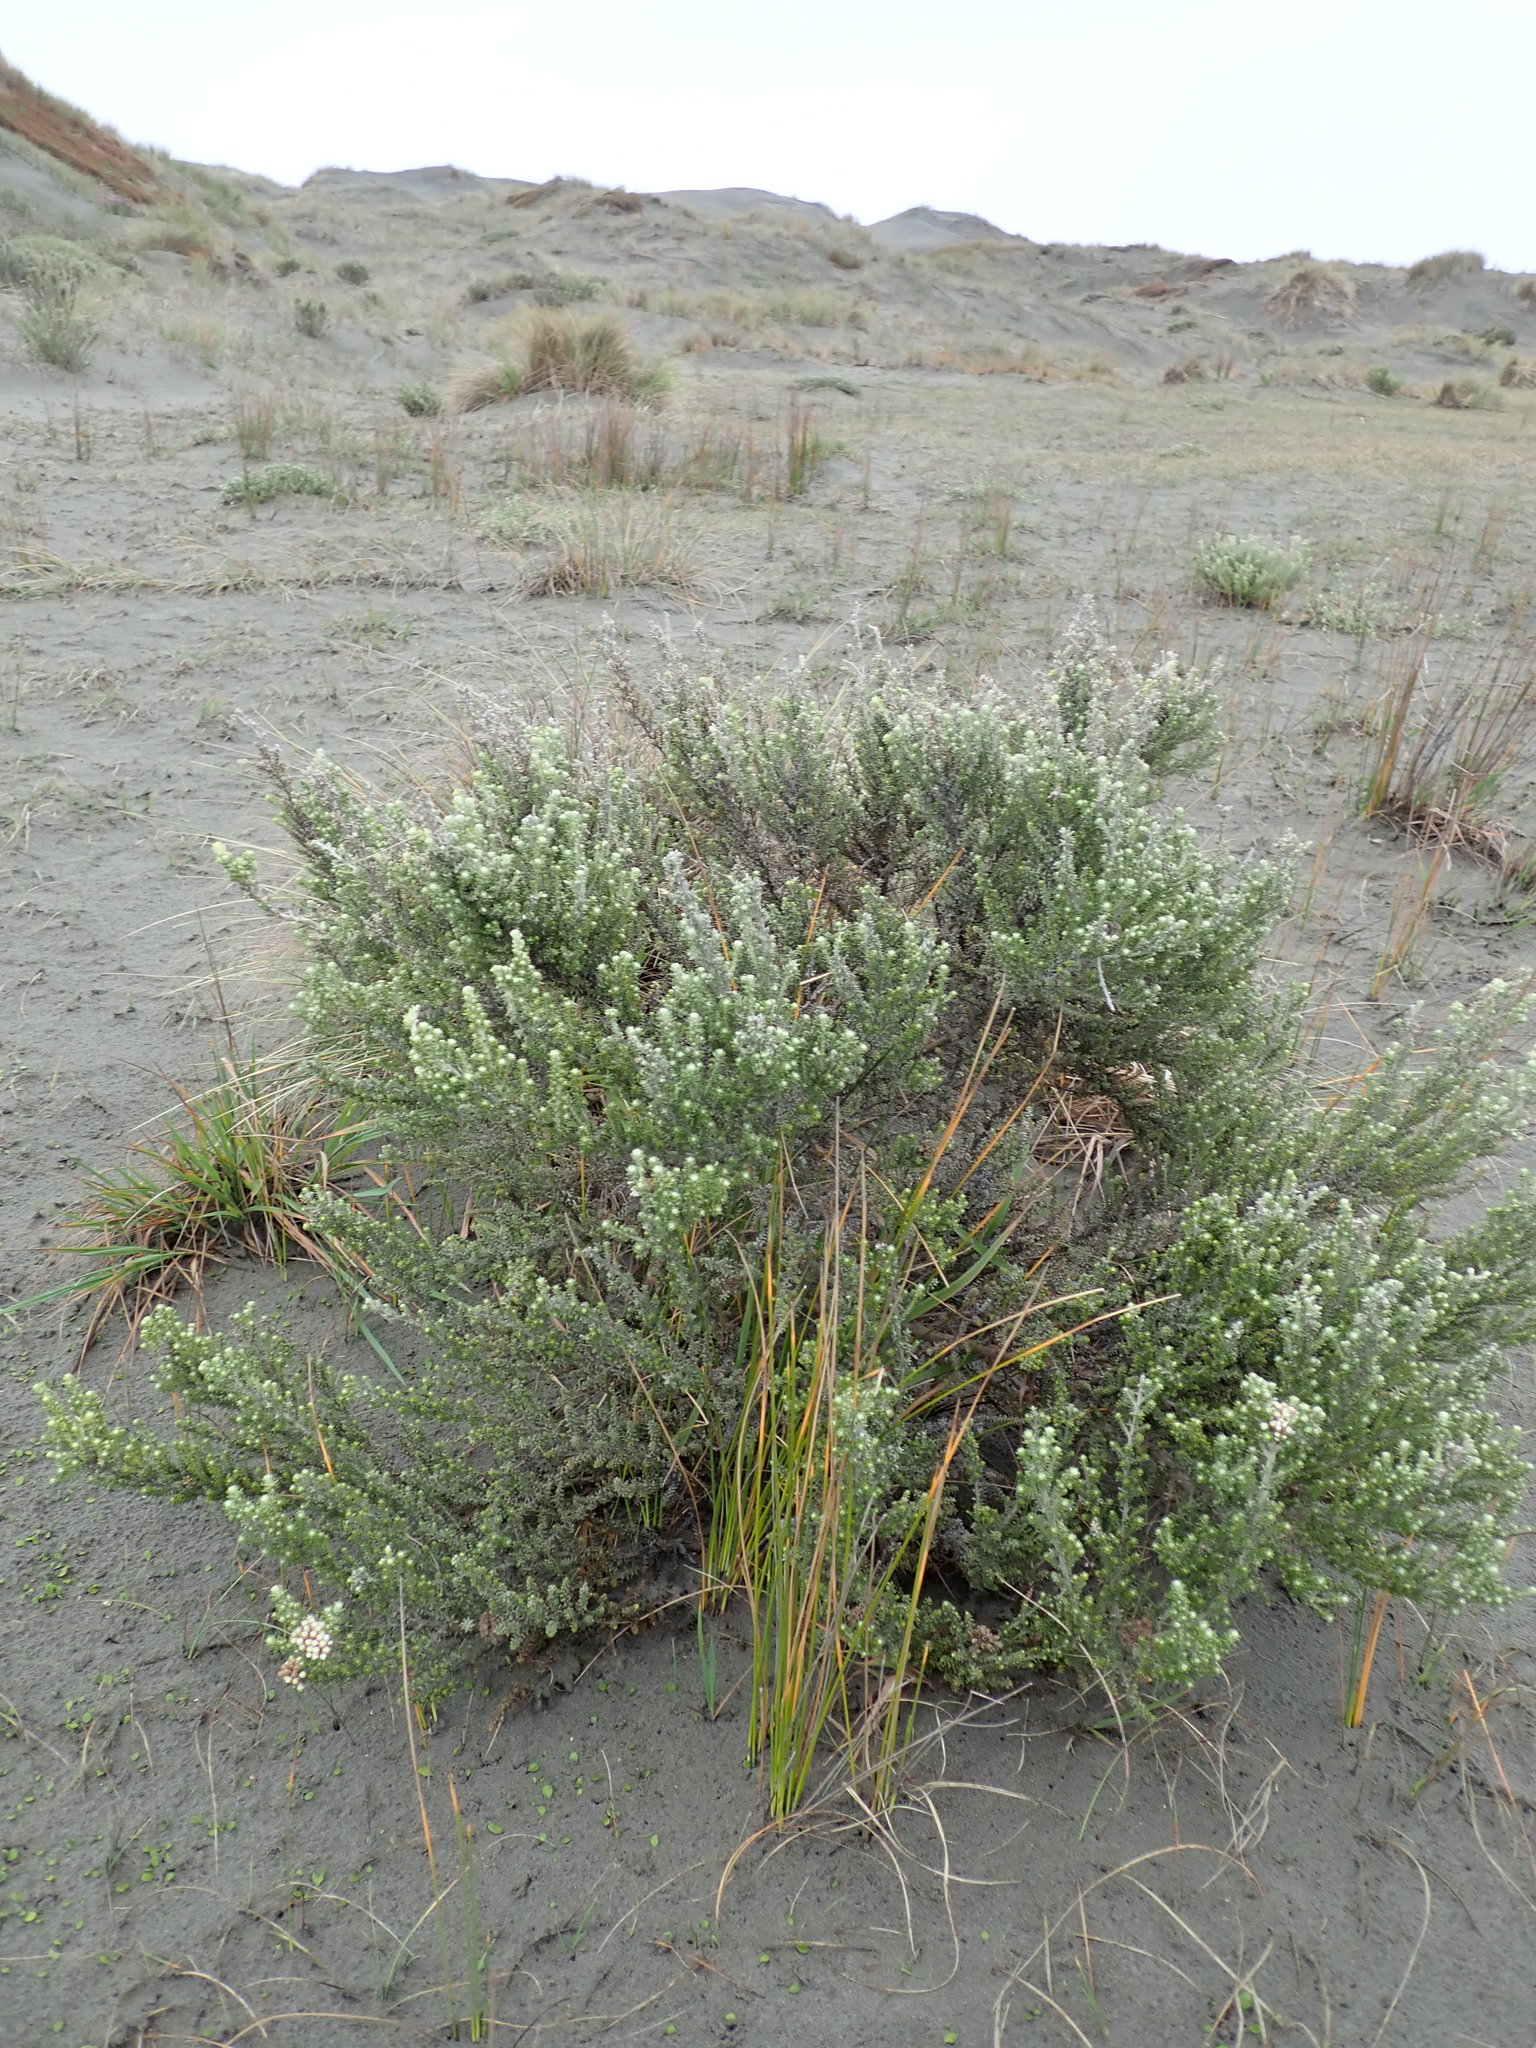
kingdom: Plantae
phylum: Tracheophyta
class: Magnoliopsida
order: Asterales
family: Asteraceae
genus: Ozothamnus
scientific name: Ozothamnus leptophyllus
